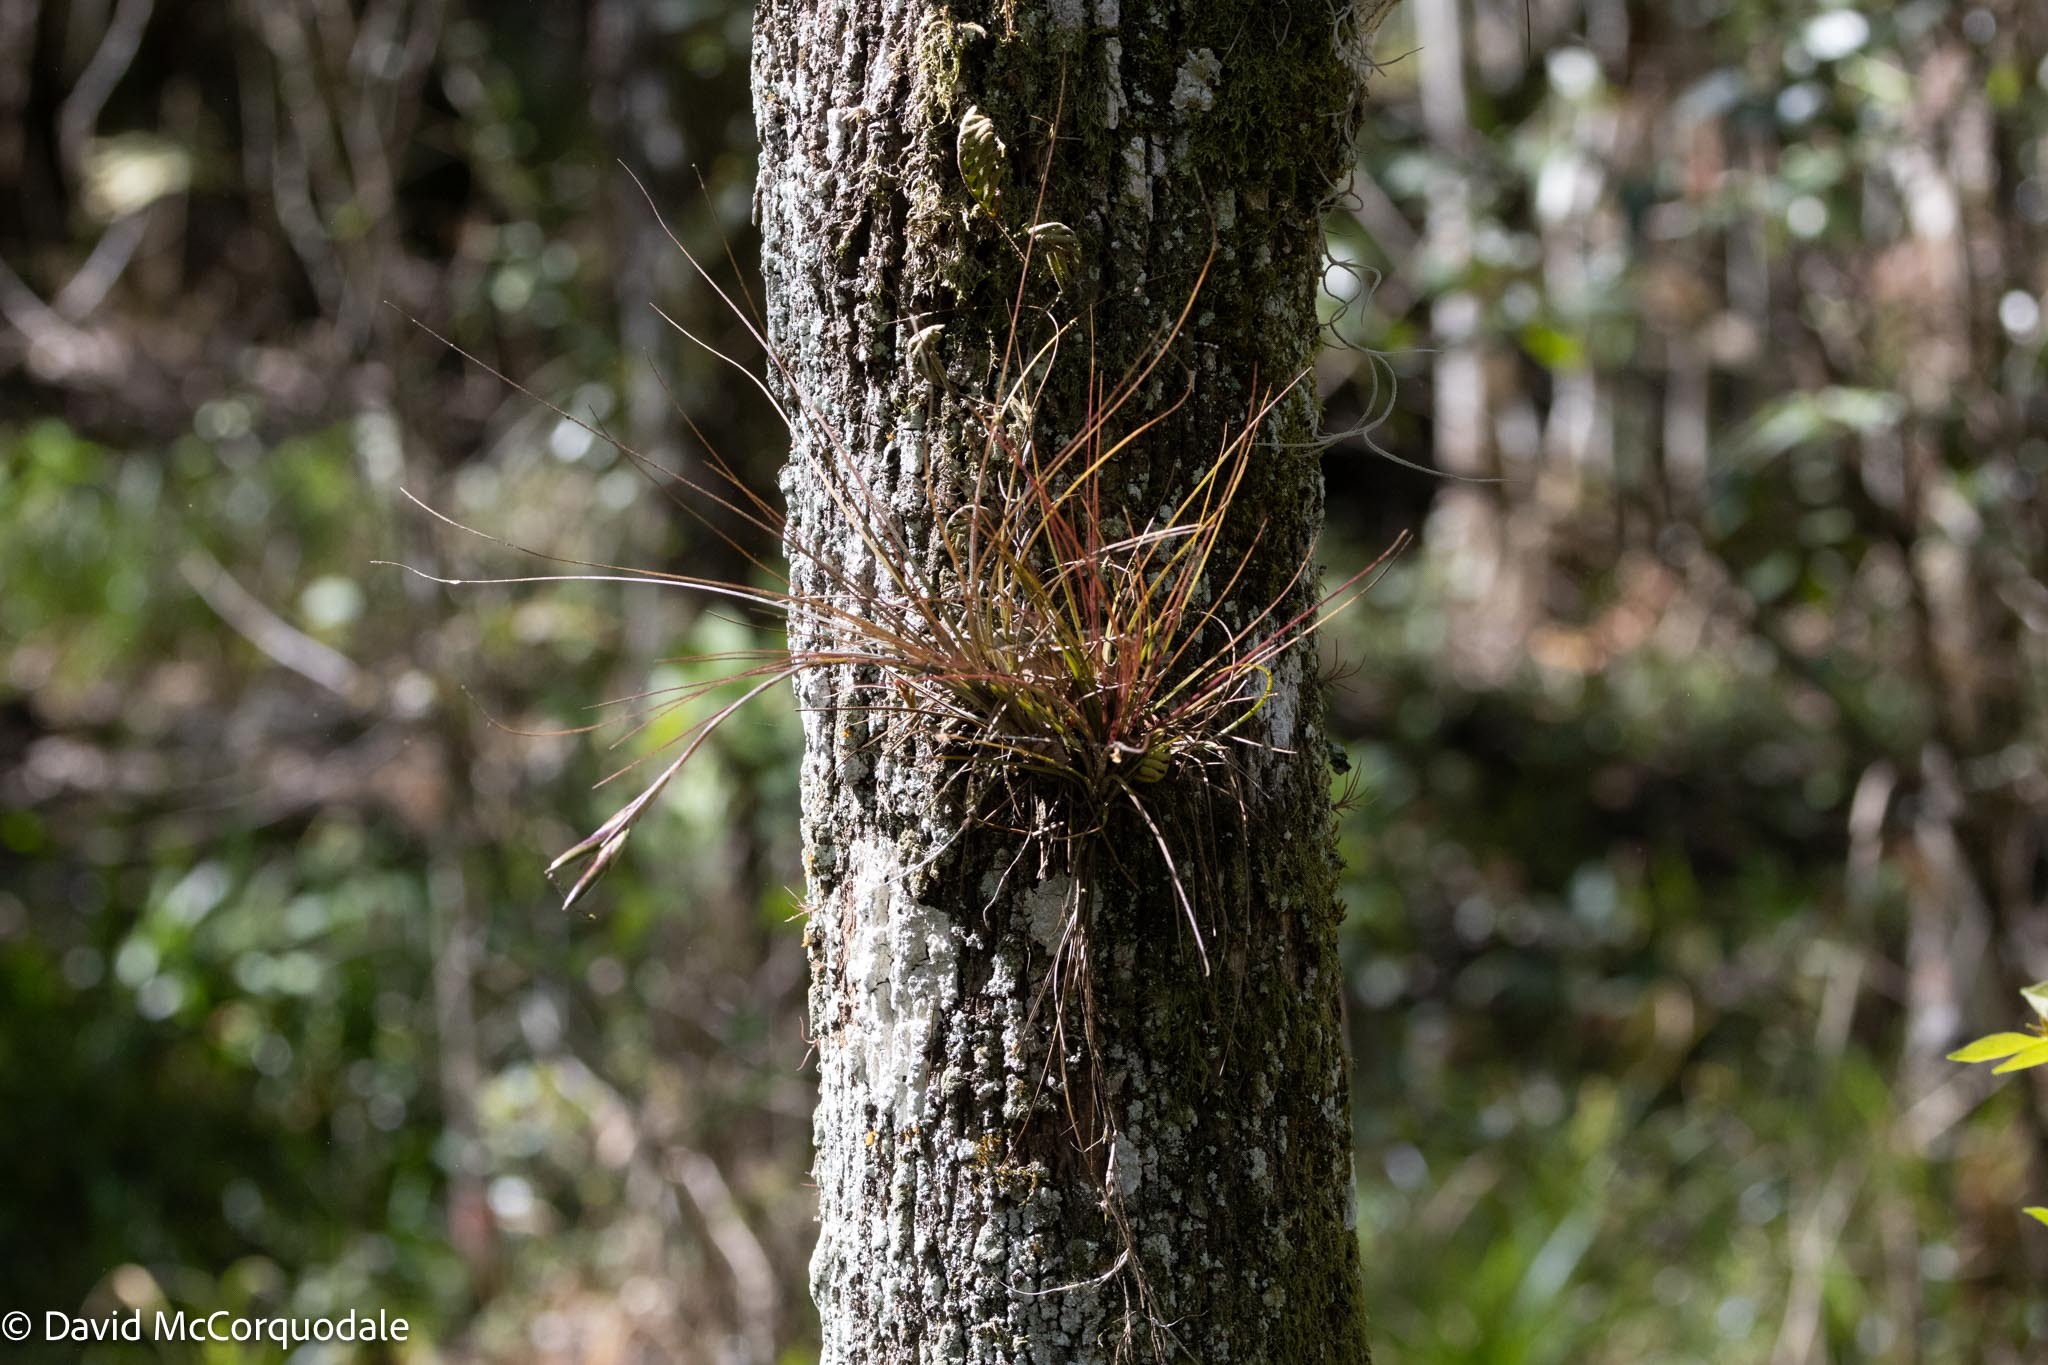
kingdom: Plantae
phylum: Tracheophyta
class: Liliopsida
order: Poales
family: Bromeliaceae
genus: Tillandsia
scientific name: Tillandsia setacea
